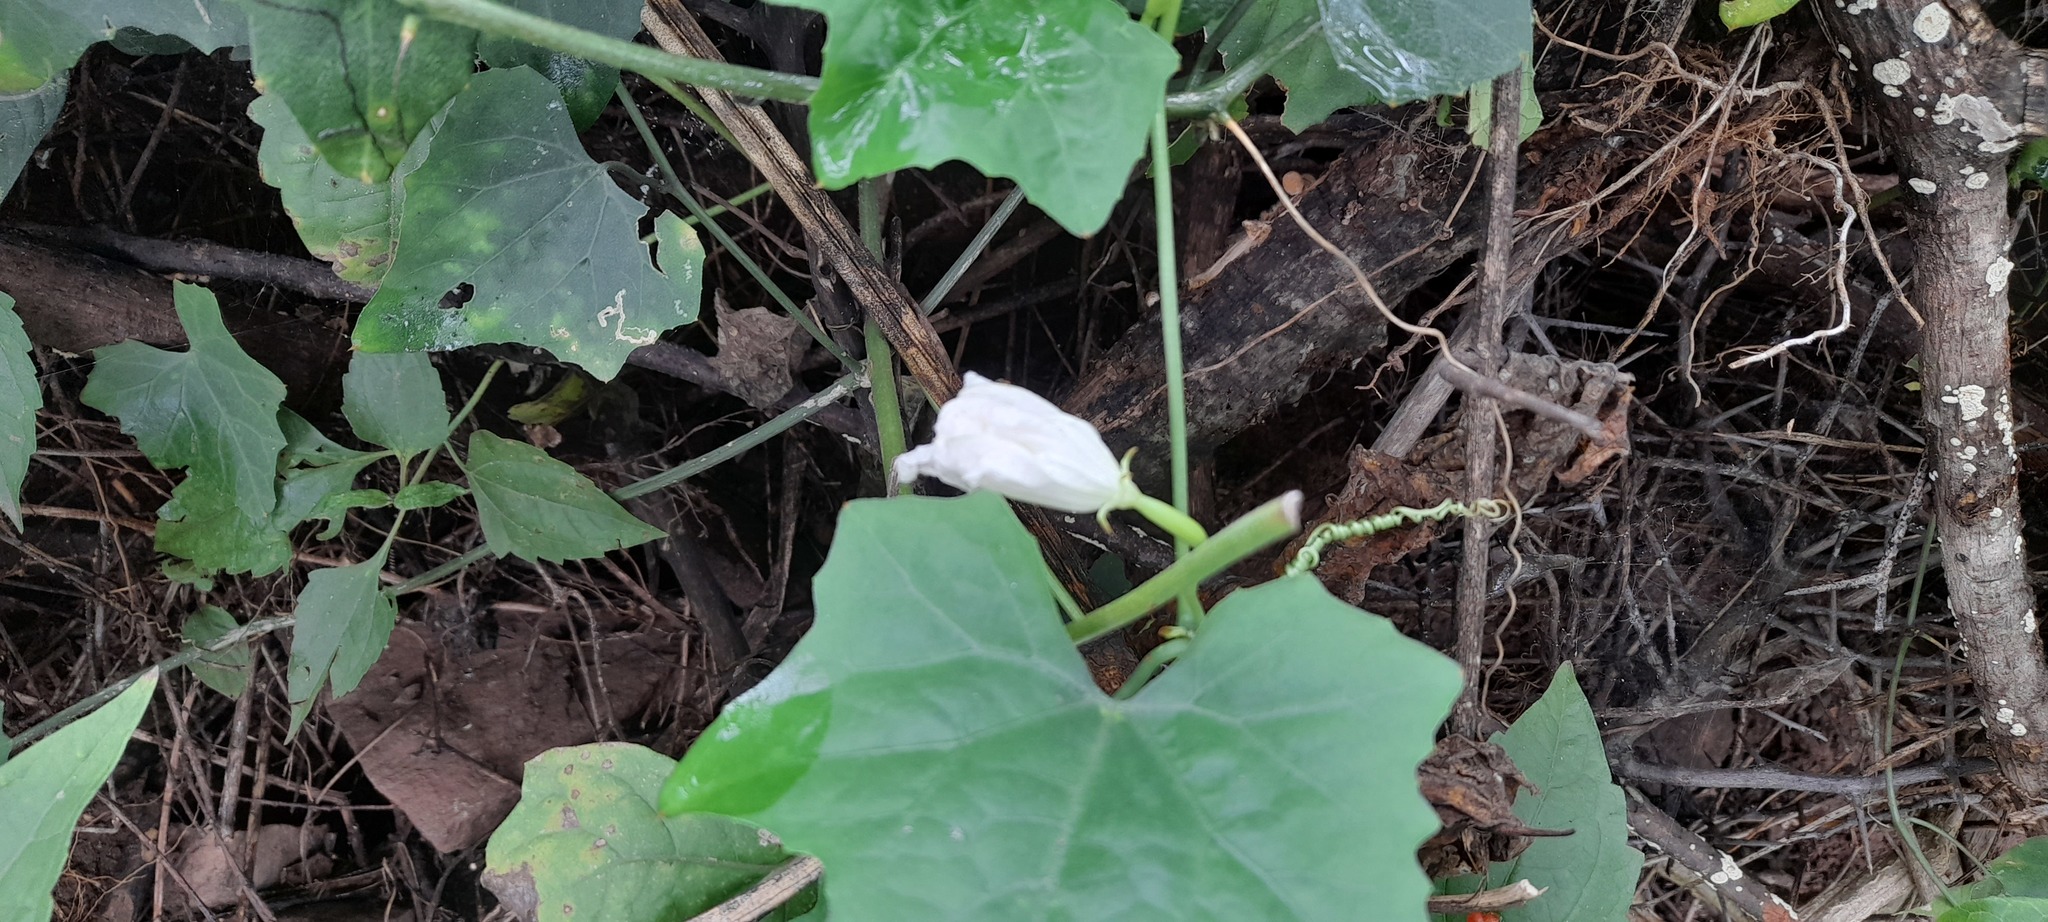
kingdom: Plantae
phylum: Tracheophyta
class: Magnoliopsida
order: Cucurbitales
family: Cucurbitaceae
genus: Coccinia
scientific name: Coccinia grandis
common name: Ivy gourd
